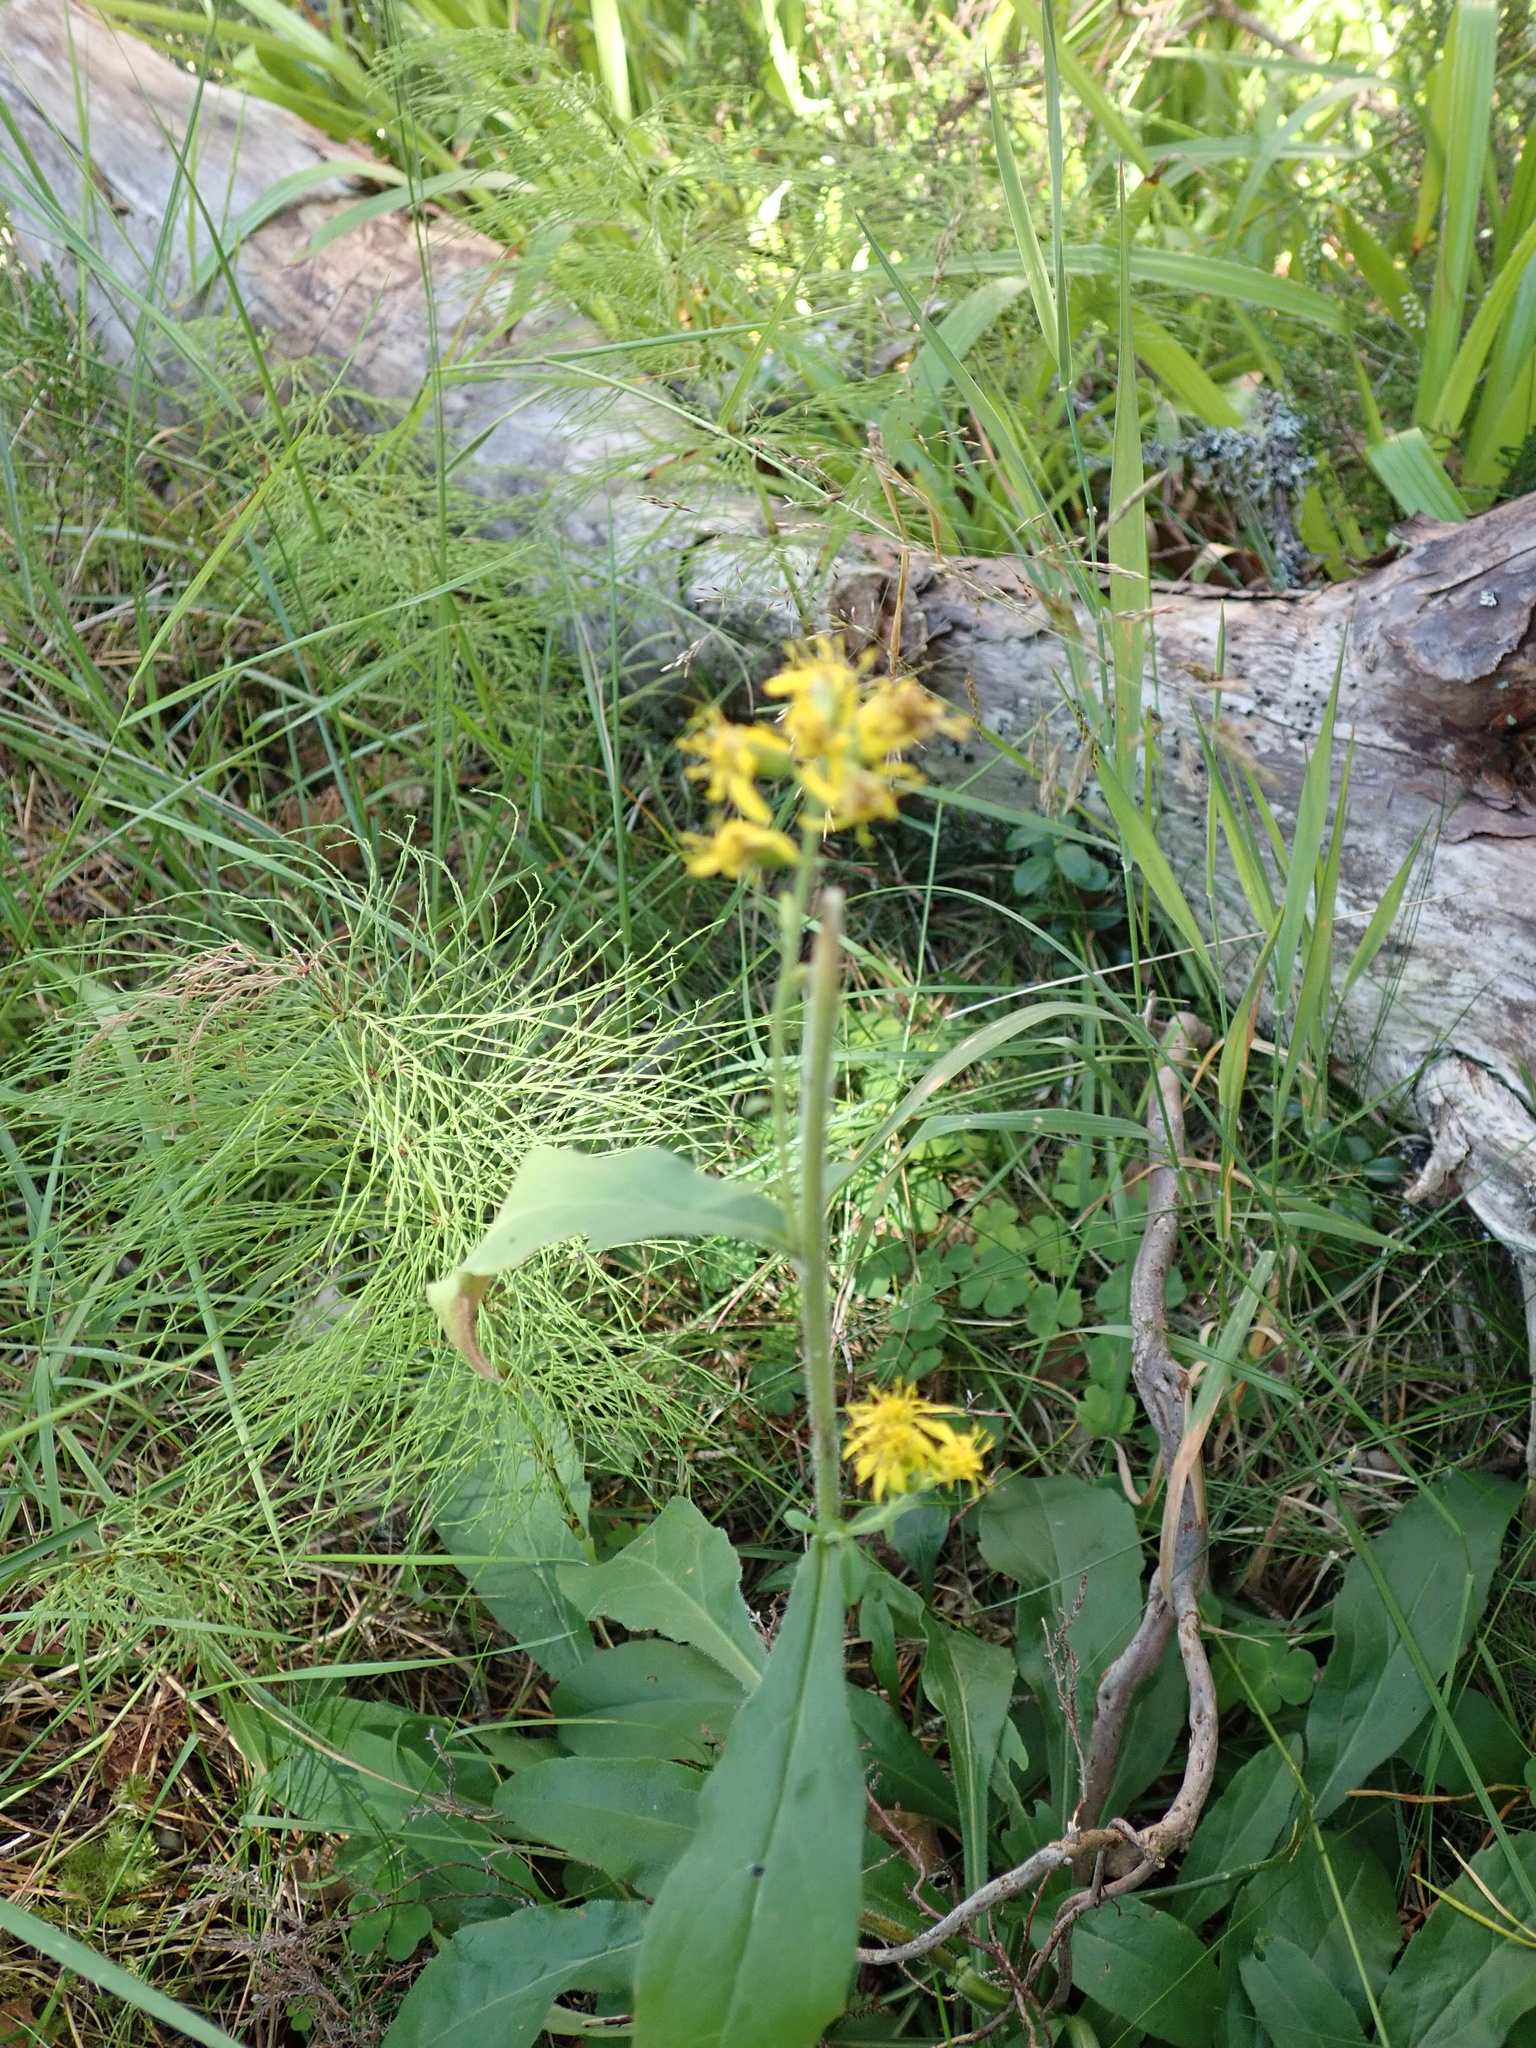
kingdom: Plantae
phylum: Tracheophyta
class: Magnoliopsida
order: Asterales
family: Asteraceae
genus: Solidago
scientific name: Solidago virgaurea
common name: Goldenrod
